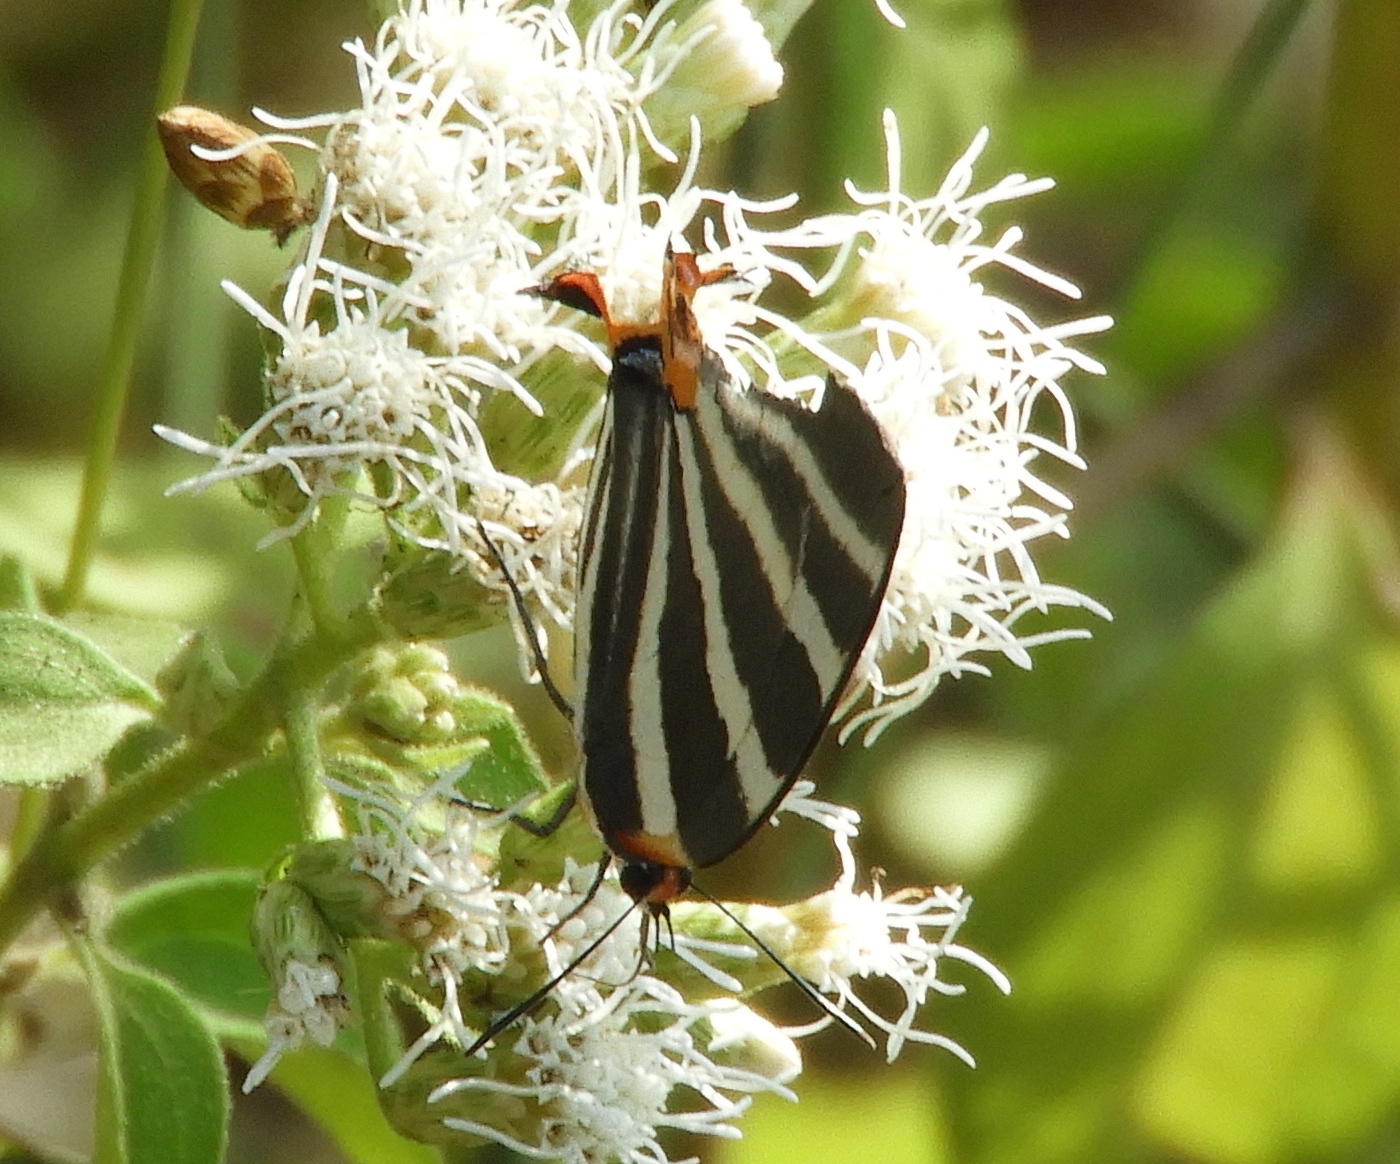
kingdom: Animalia
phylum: Arthropoda
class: Insecta
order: Lepidoptera
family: Lycaenidae
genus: Thecla
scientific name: Thecla bathildis
